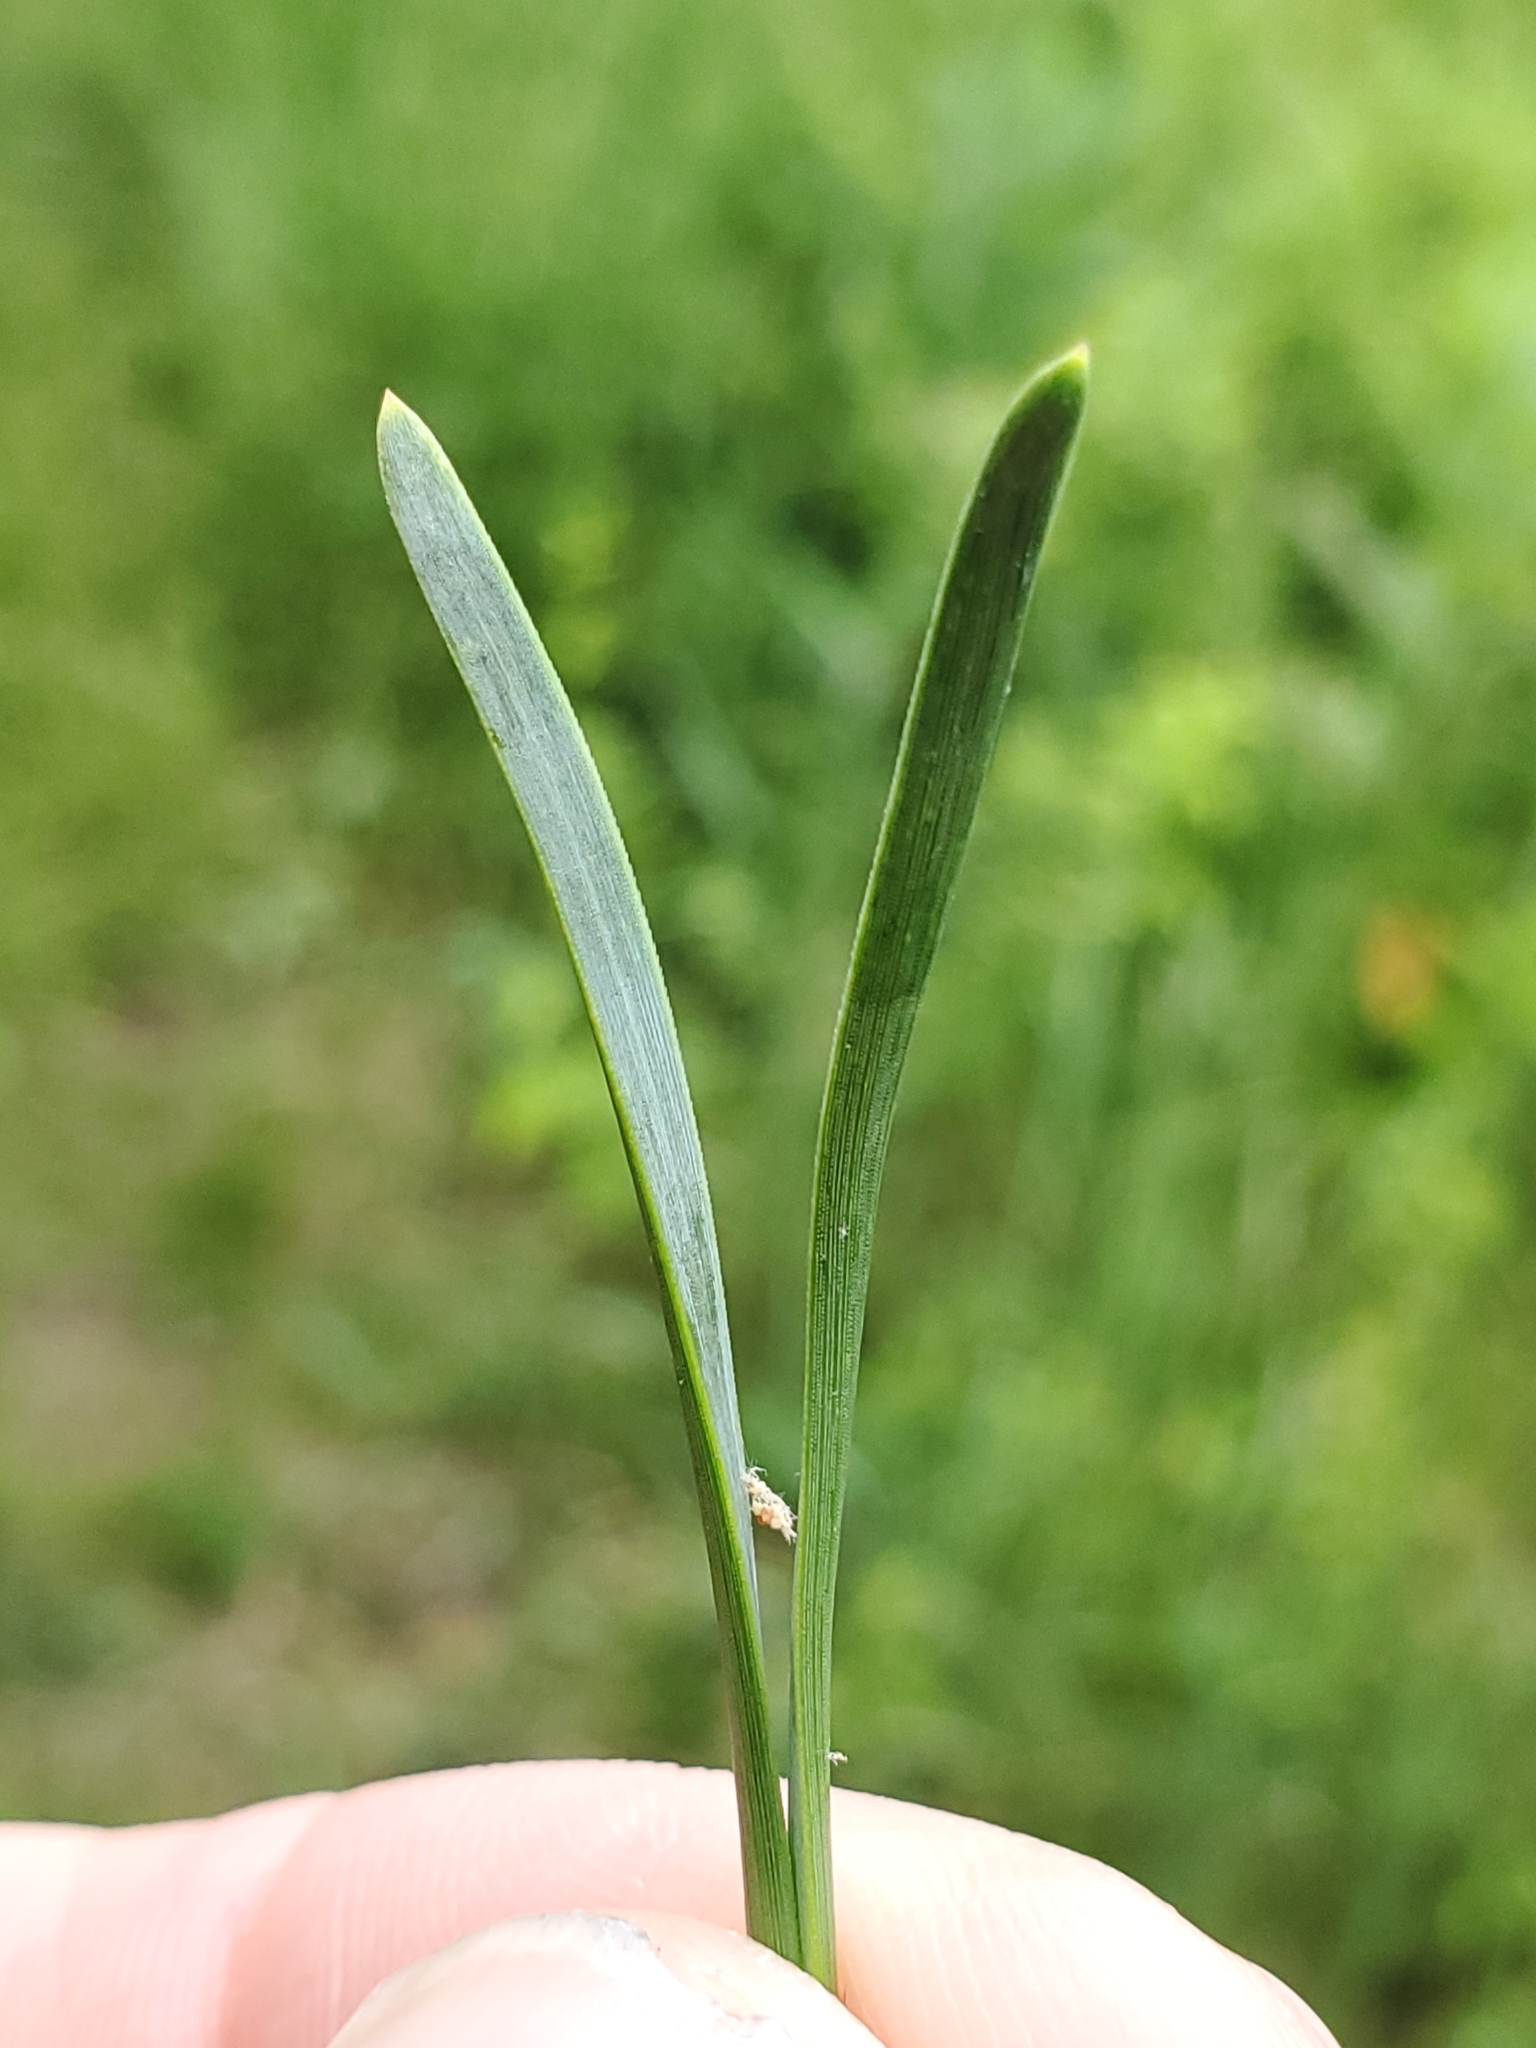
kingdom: Plantae
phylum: Tracheophyta
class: Pinopsida
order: Pinales
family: Pinaceae
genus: Pinus
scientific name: Pinus virginiana
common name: Scrub pine
